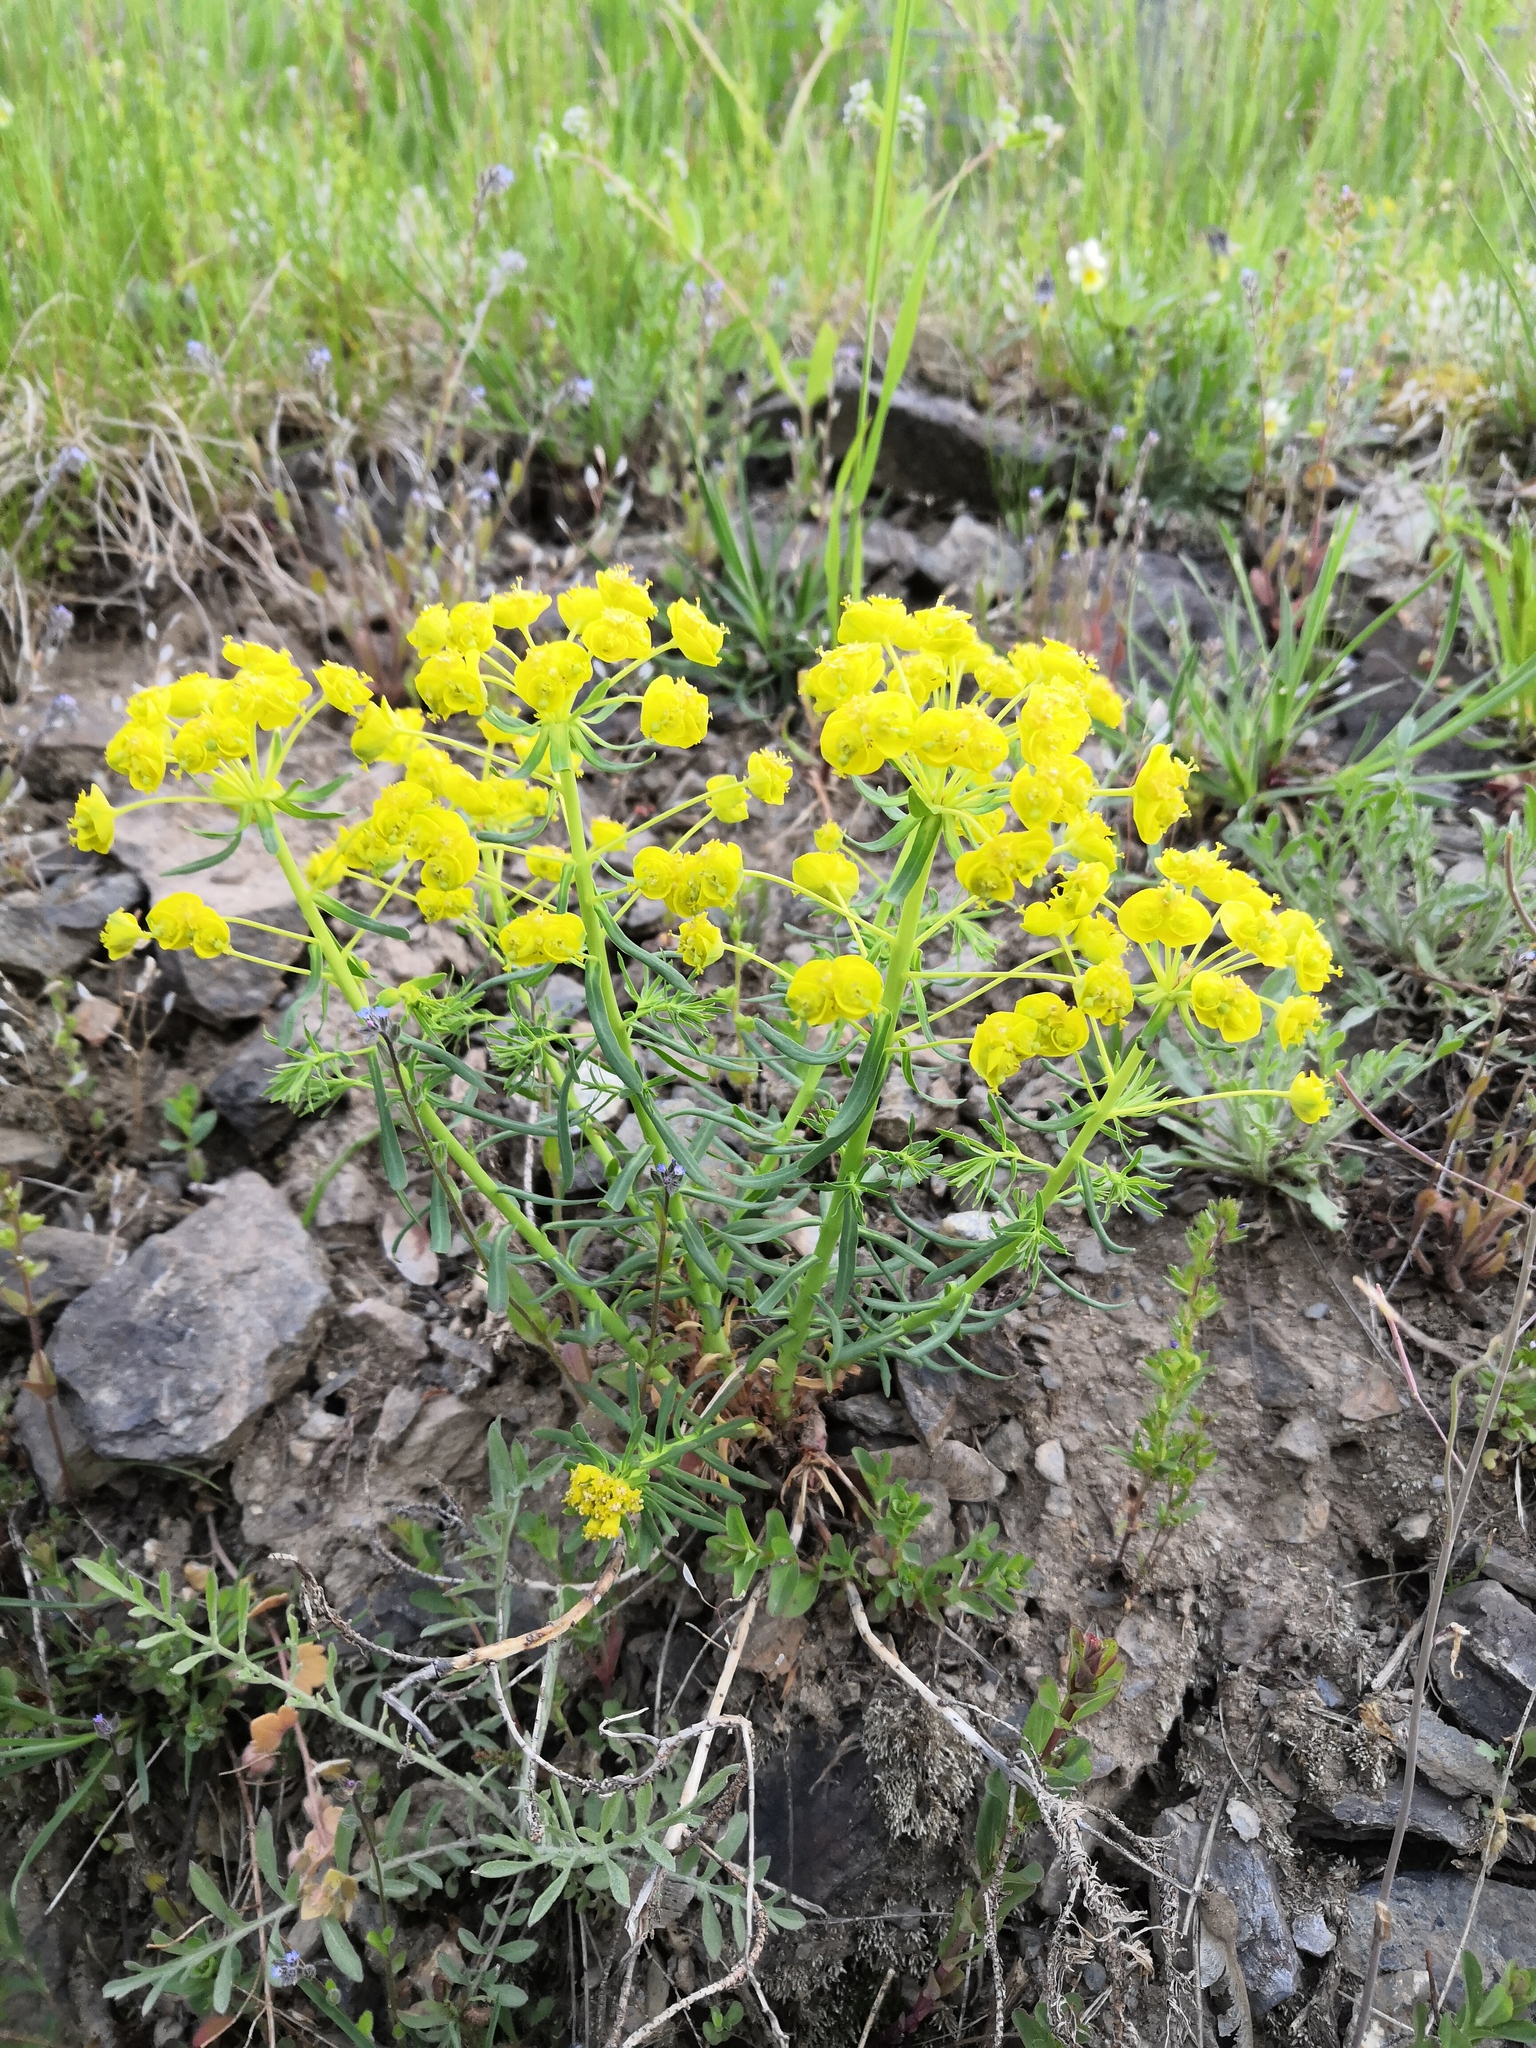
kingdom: Plantae
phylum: Tracheophyta
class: Magnoliopsida
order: Malpighiales
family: Euphorbiaceae
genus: Euphorbia
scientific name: Euphorbia cyparissias
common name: Cypress spurge
